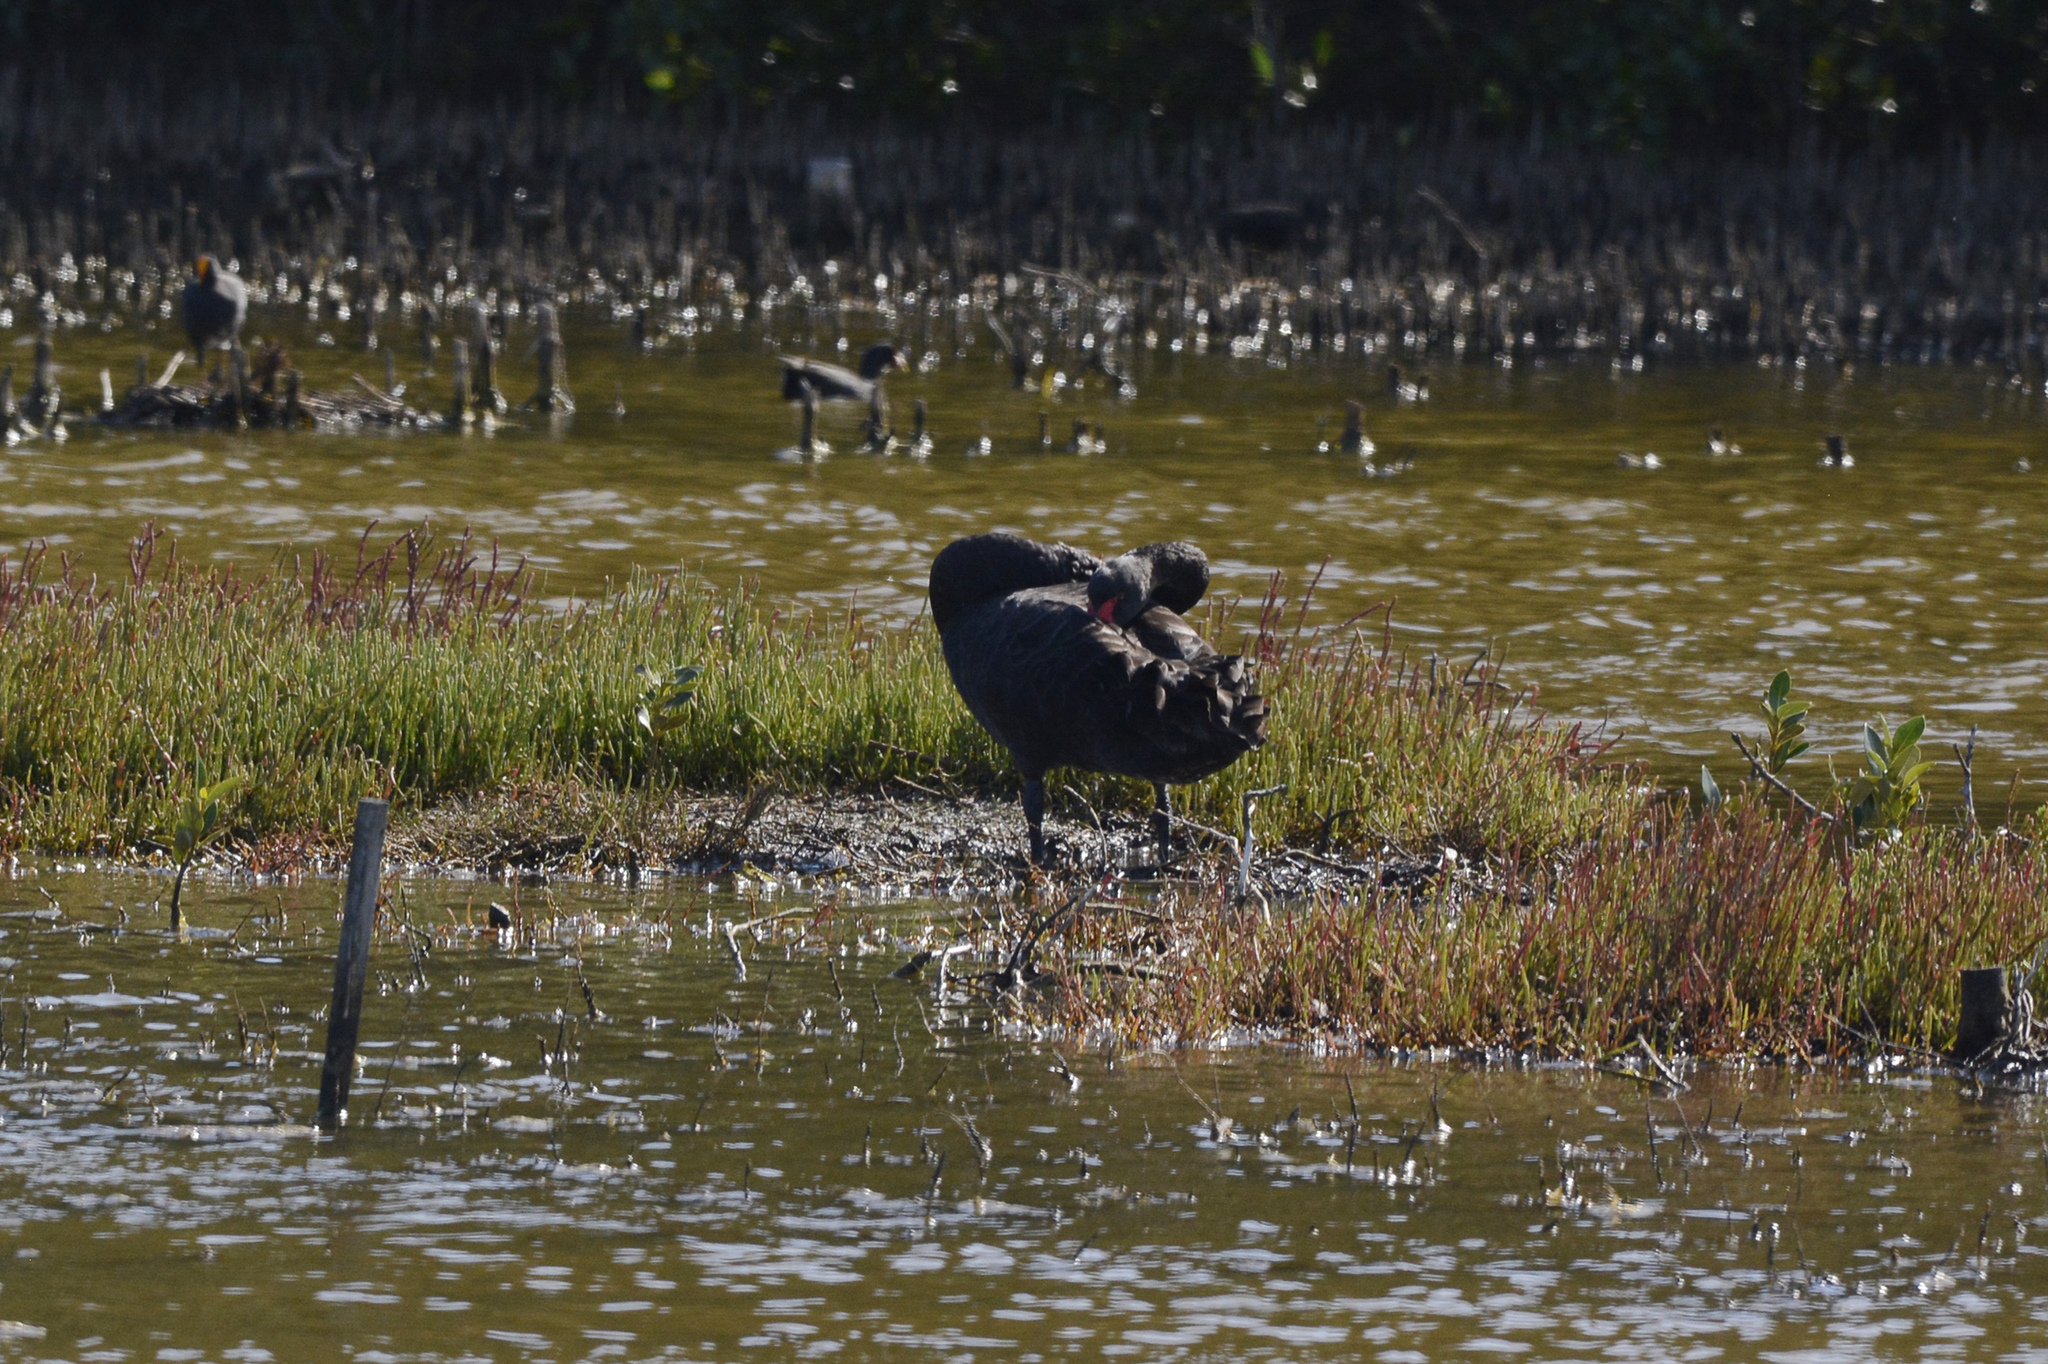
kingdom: Animalia
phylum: Chordata
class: Aves
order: Anseriformes
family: Anatidae
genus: Cygnus
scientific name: Cygnus atratus
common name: Black swan
